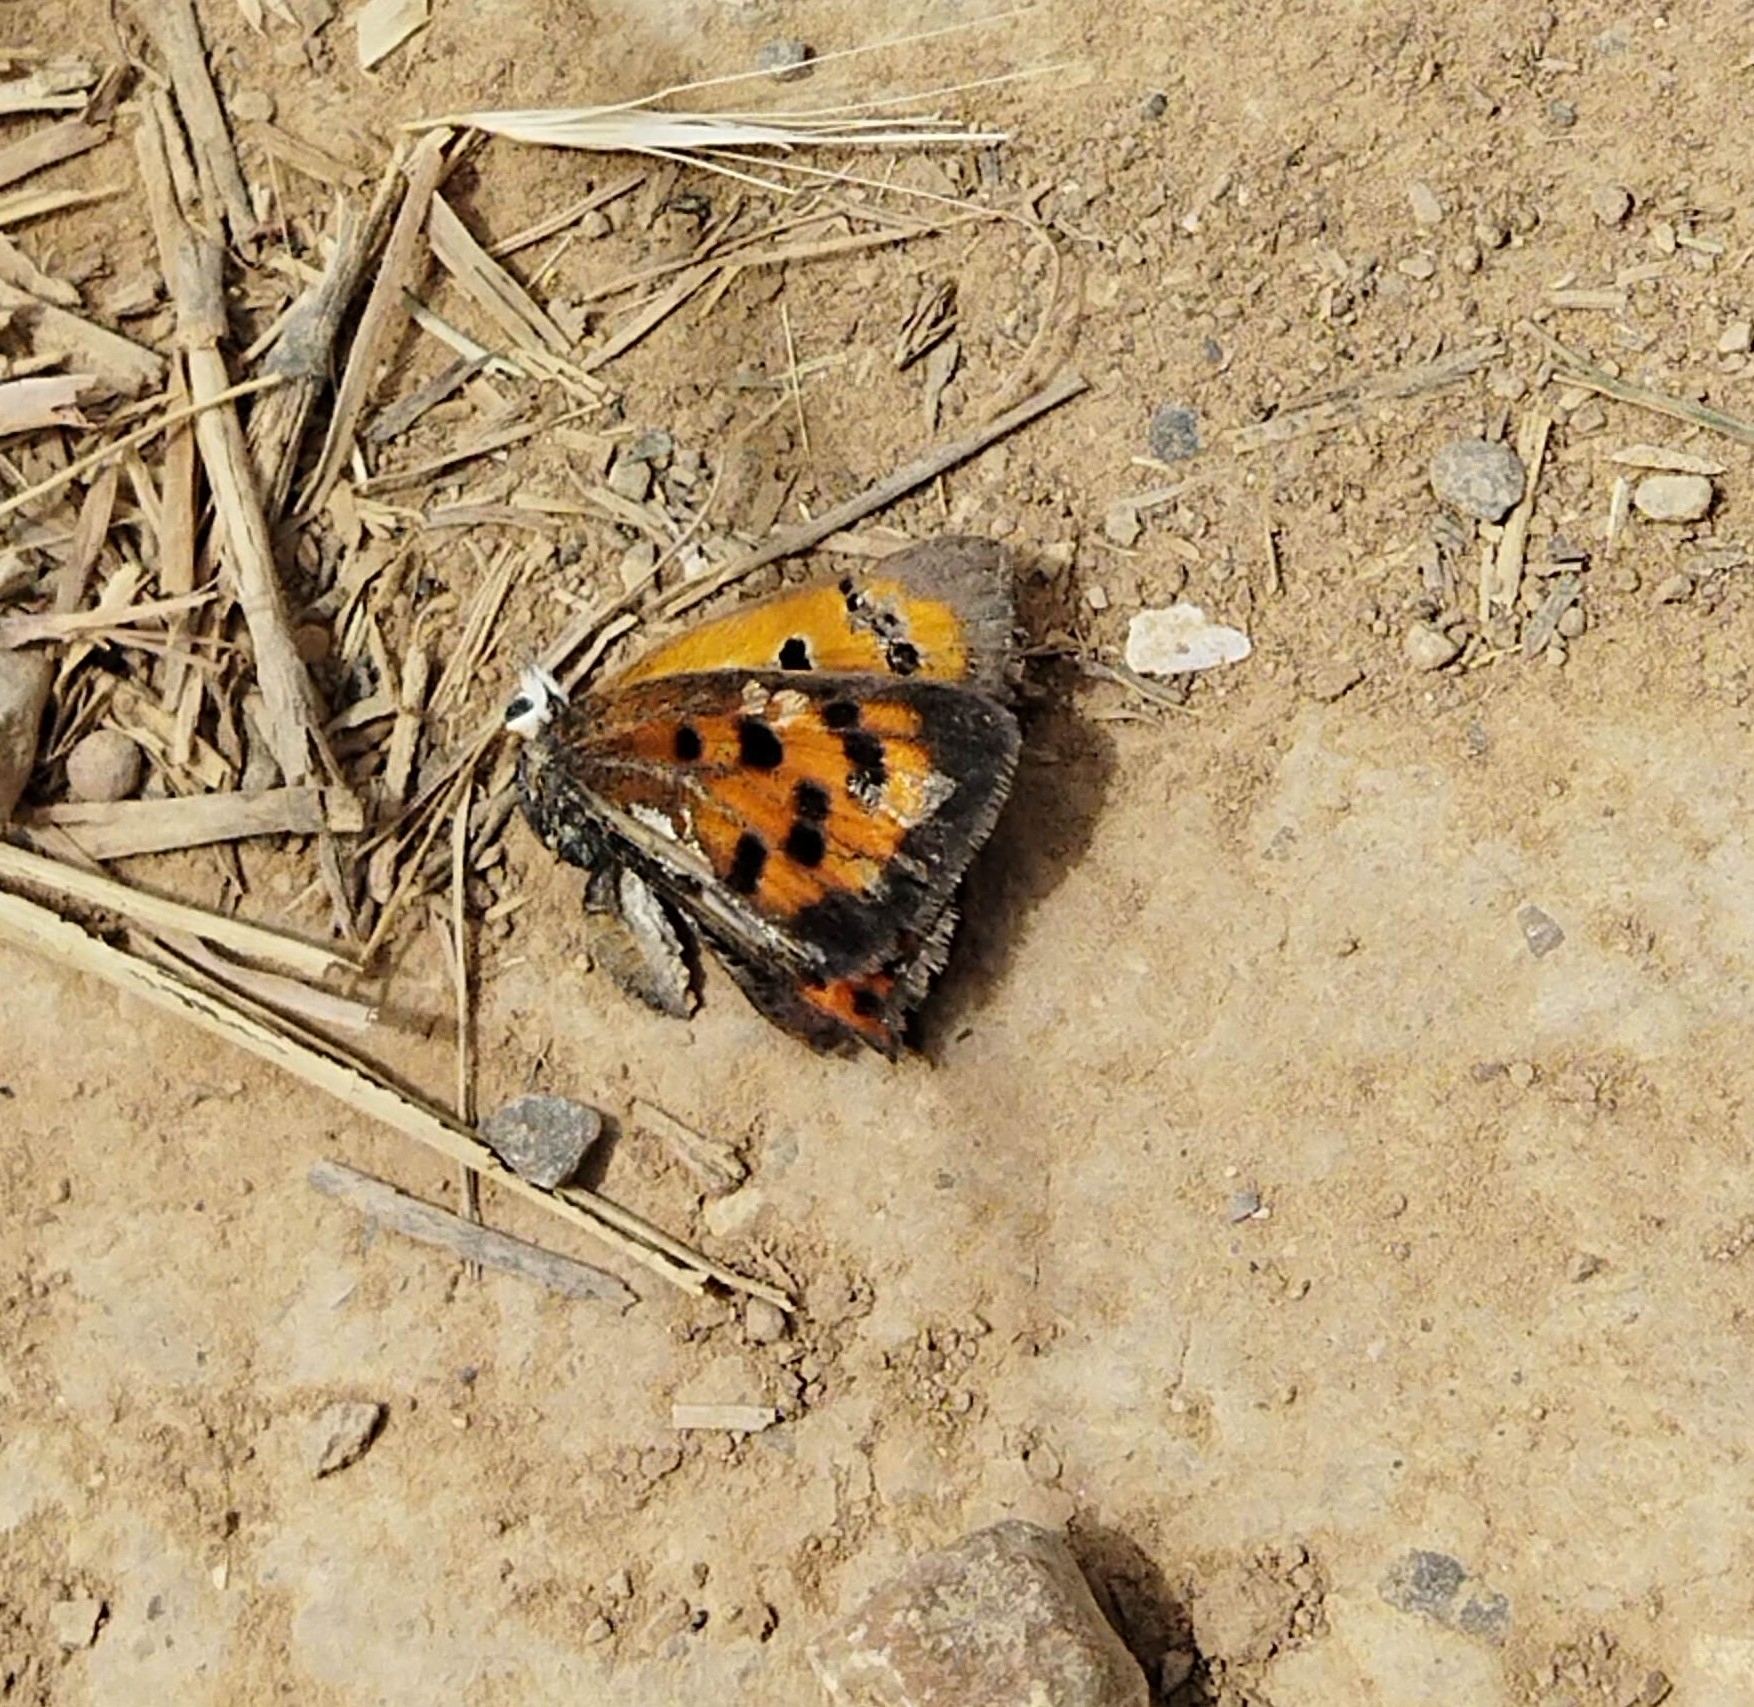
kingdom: Animalia
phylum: Arthropoda
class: Insecta
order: Lepidoptera
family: Lycaenidae
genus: Lycaena
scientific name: Lycaena phlaeas
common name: Small copper
